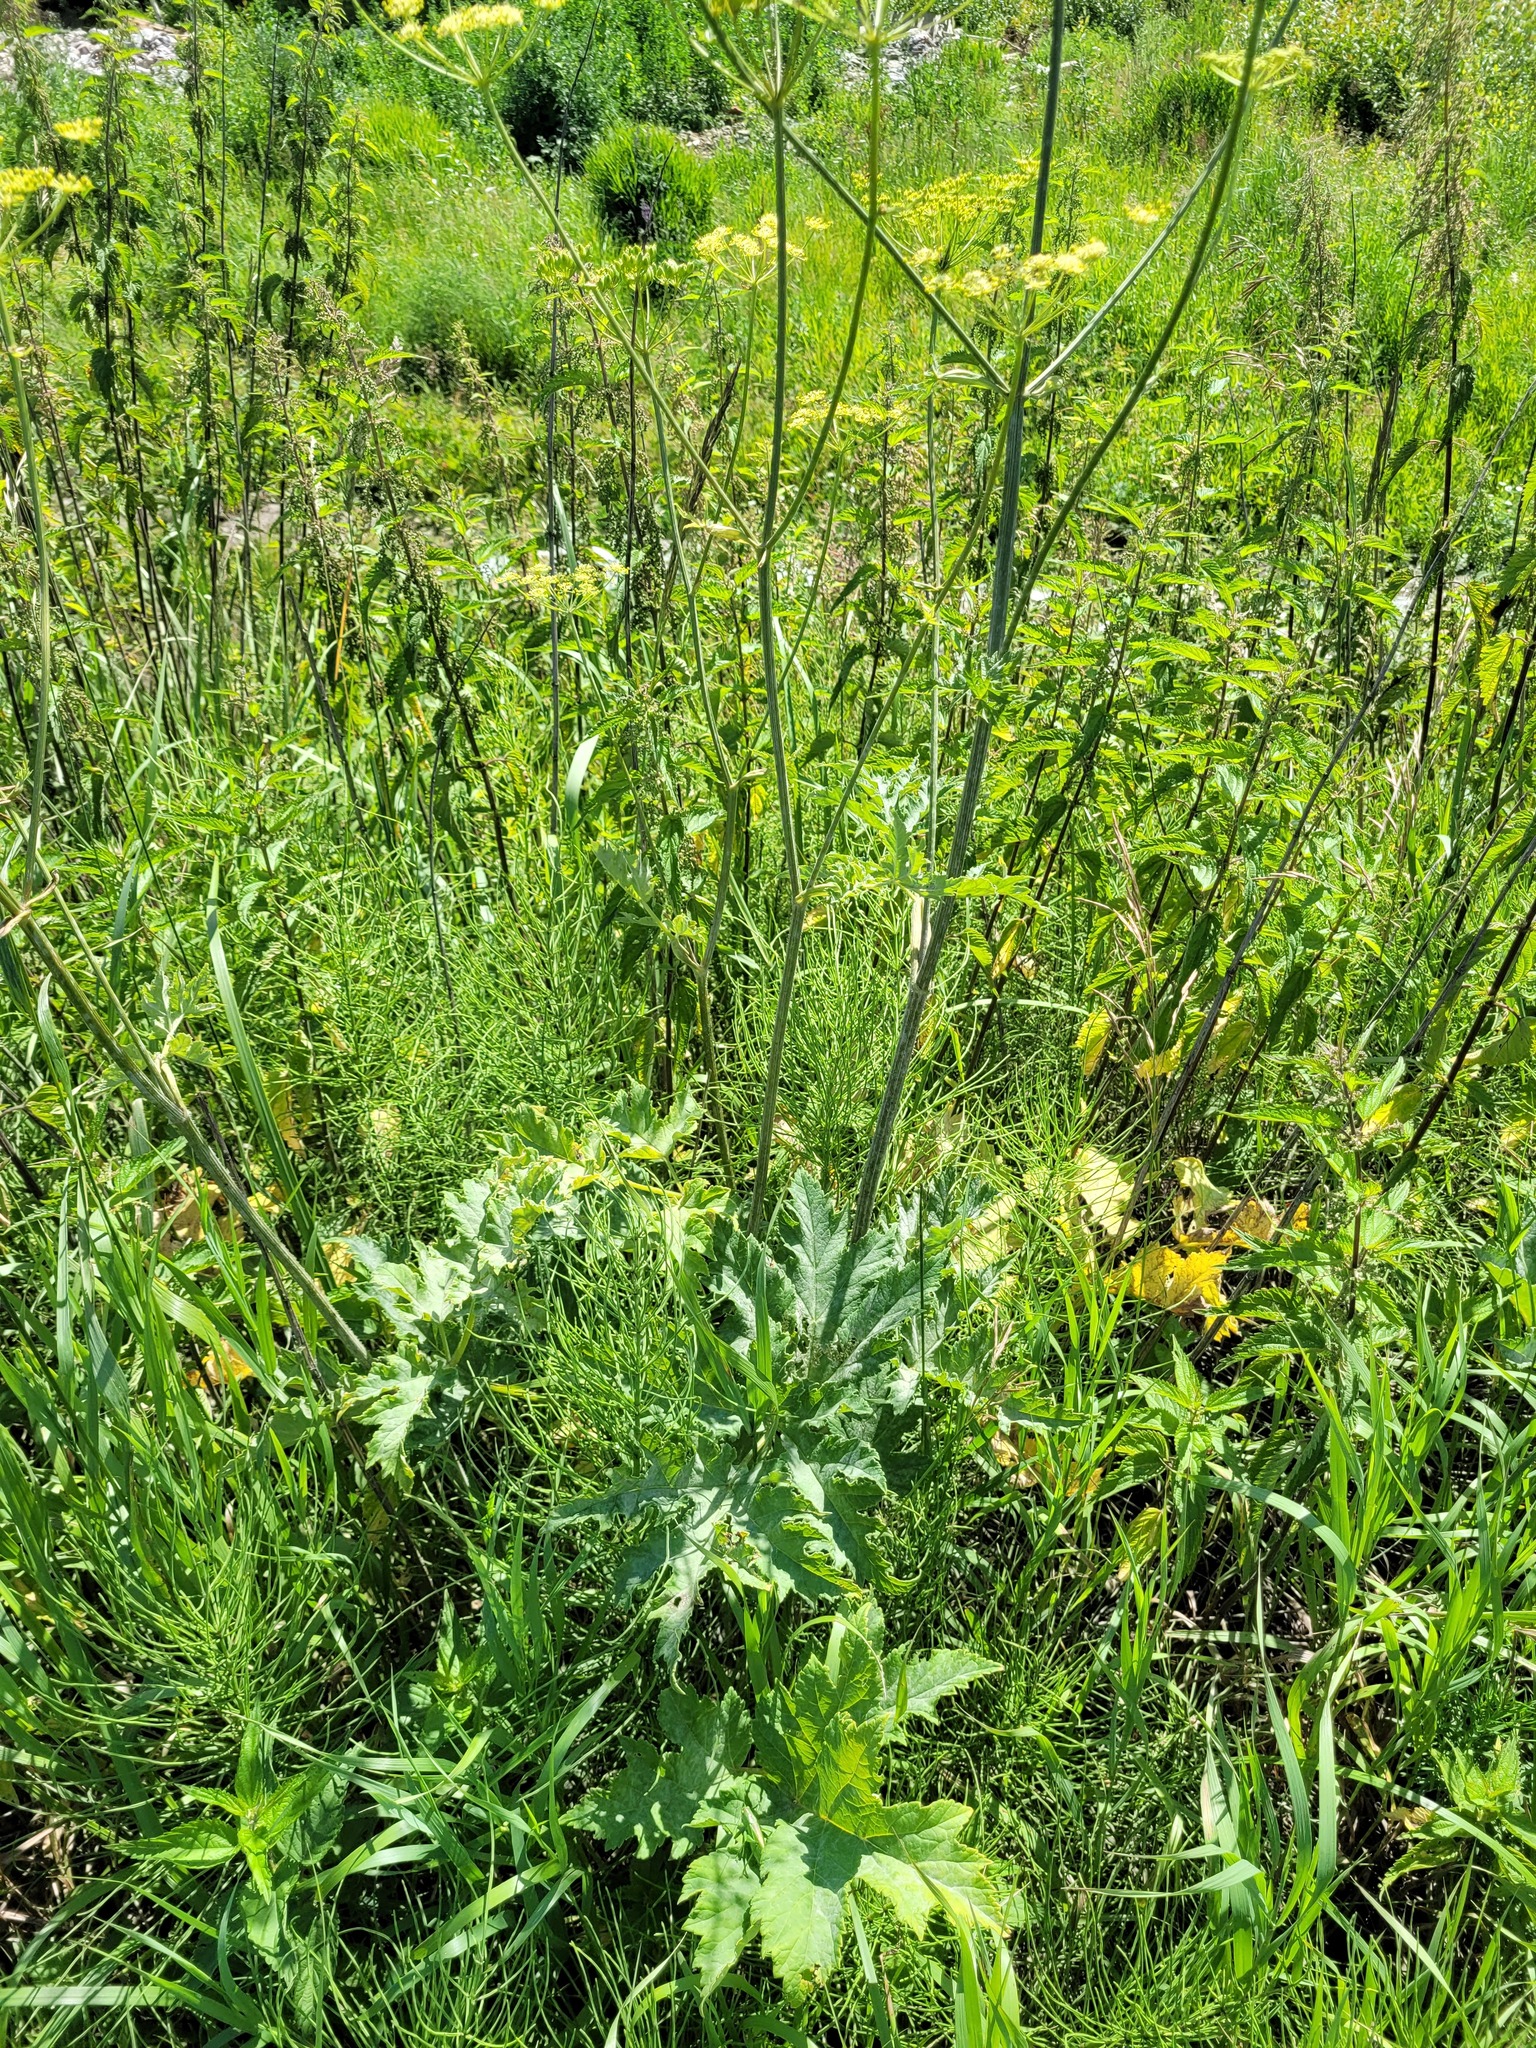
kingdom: Plantae
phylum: Tracheophyta
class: Magnoliopsida
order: Apiales
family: Apiaceae
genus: Heracleum
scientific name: Heracleum sphondylium
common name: Hogweed
